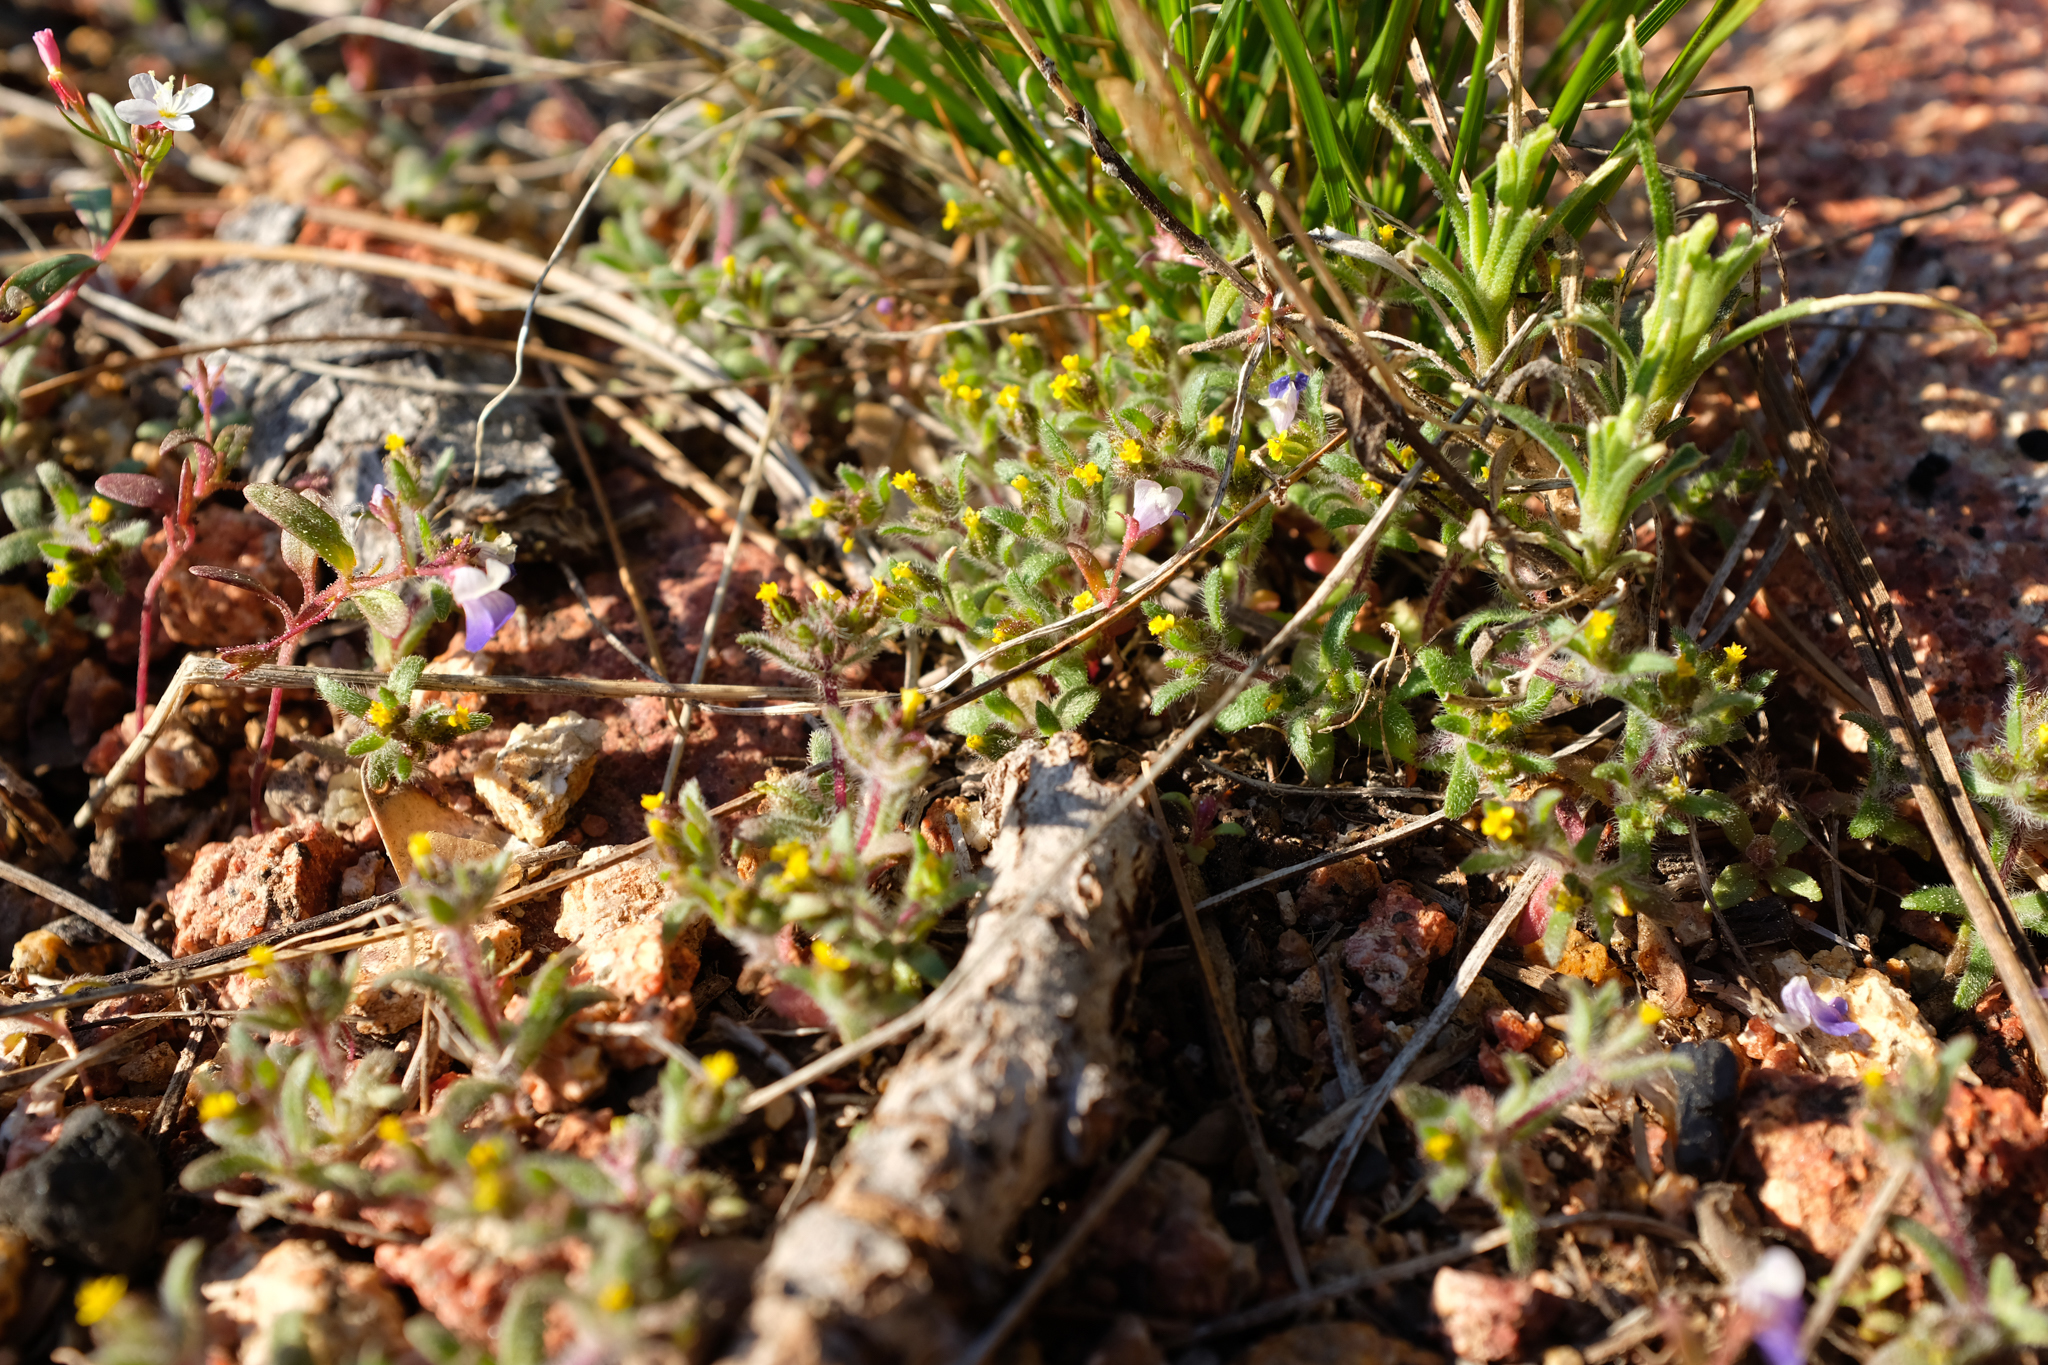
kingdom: Plantae
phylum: Tracheophyta
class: Magnoliopsida
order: Asterales
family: Asteraceae
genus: Hemizonella
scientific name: Hemizonella minima
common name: Opposite-leaved tarweed
